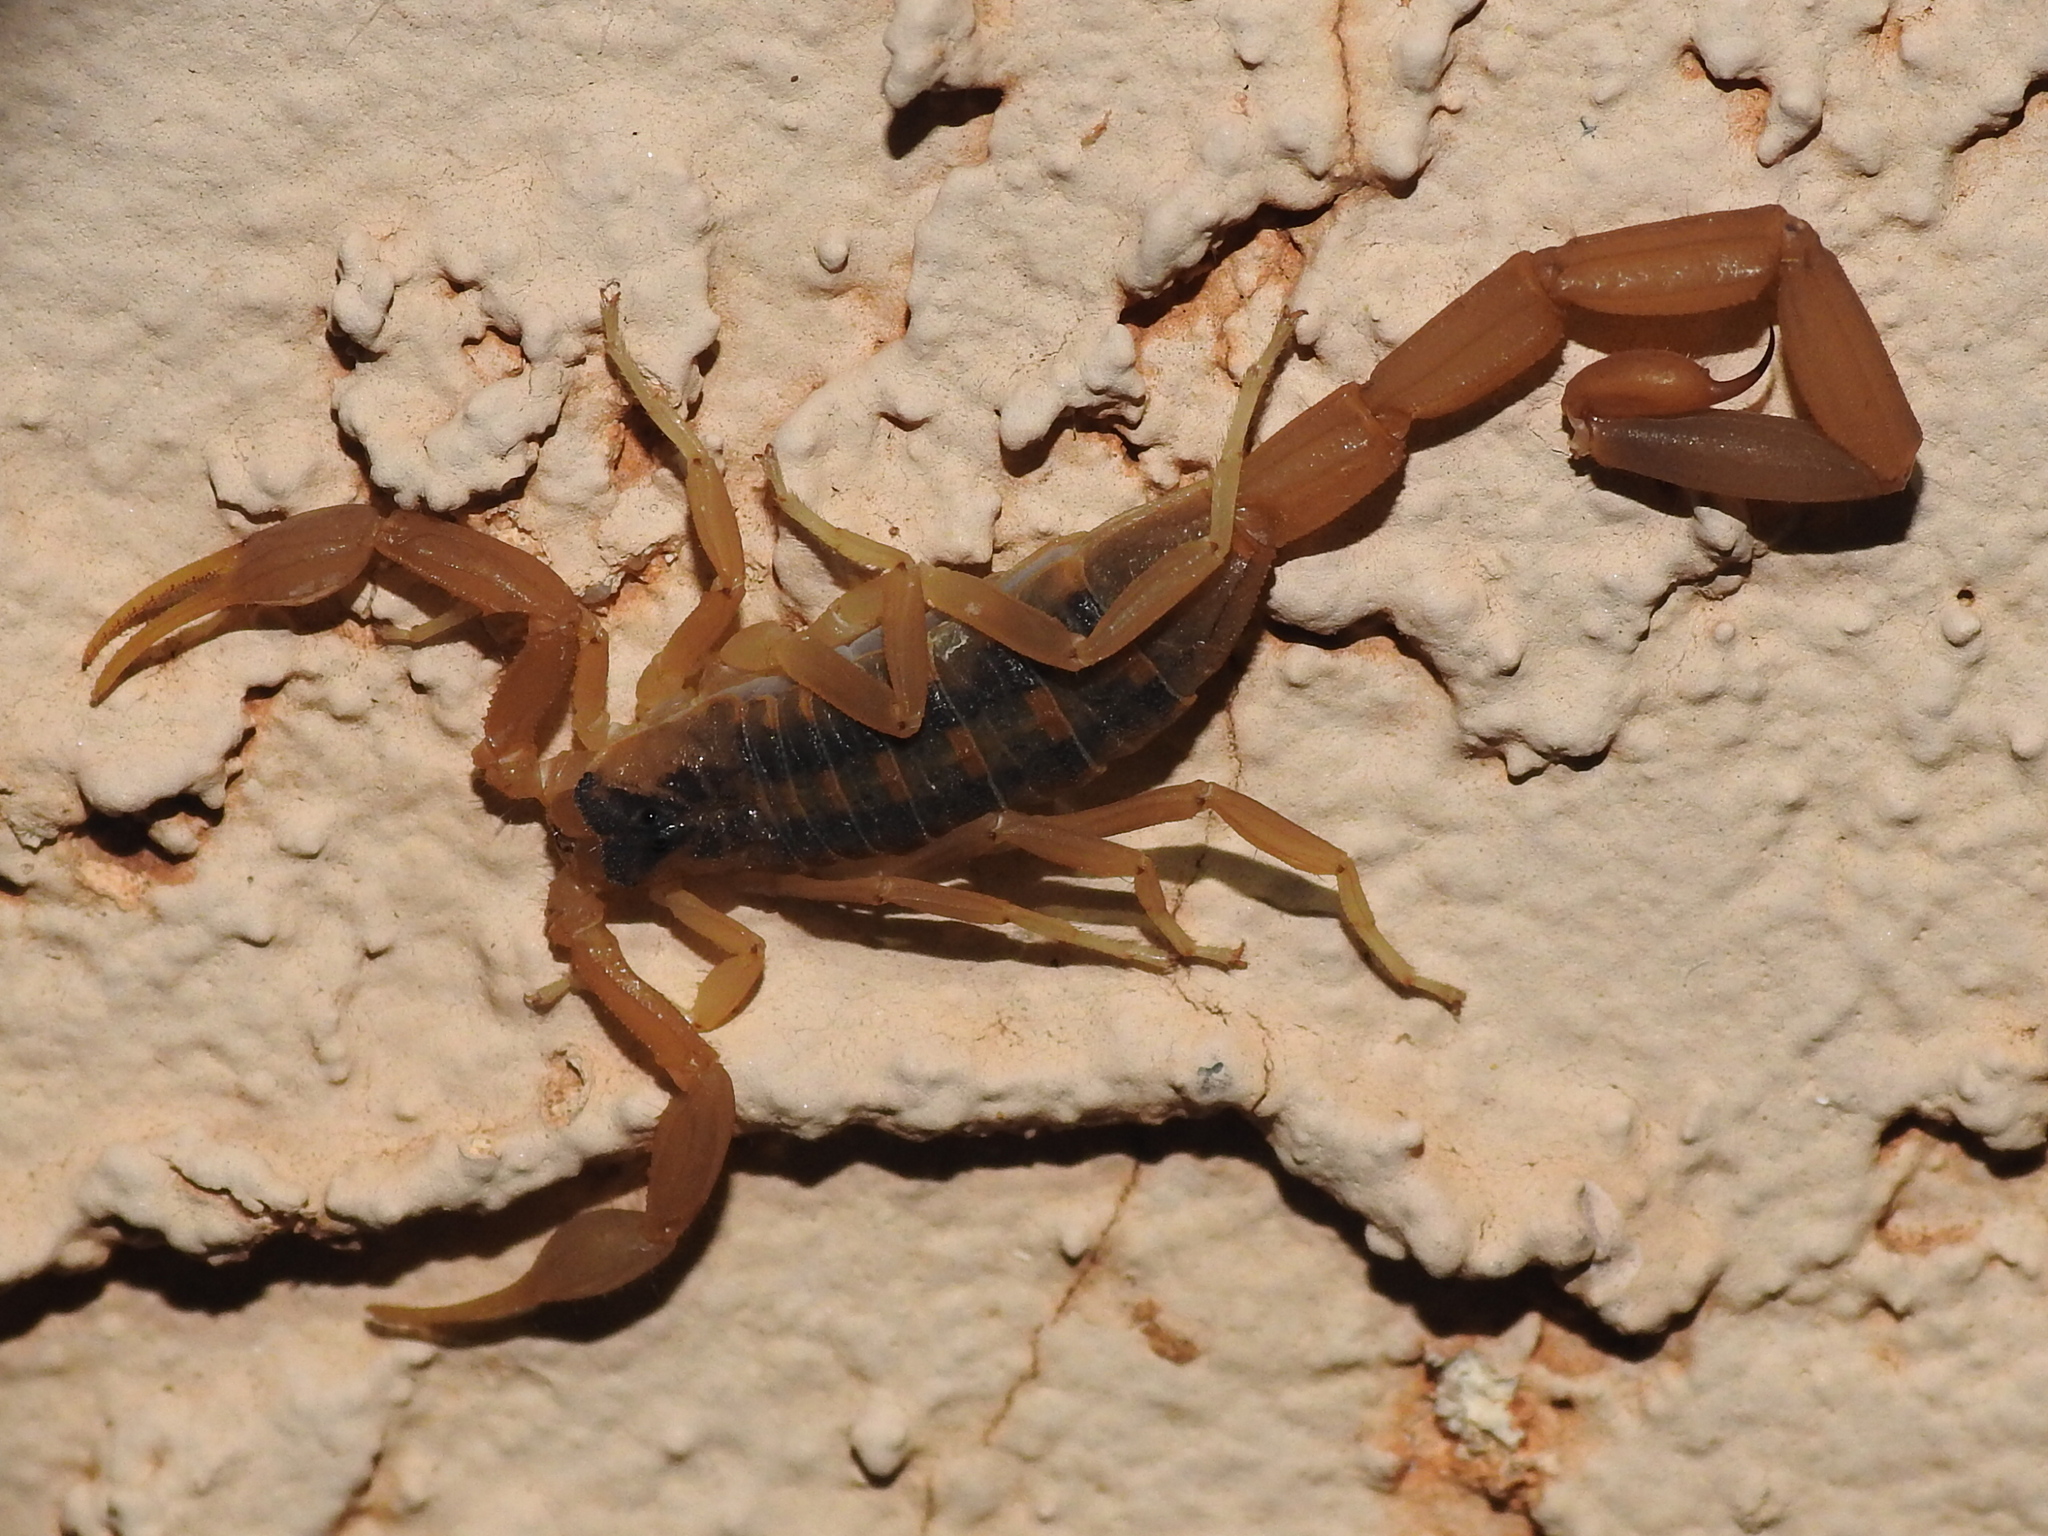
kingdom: Animalia
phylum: Arthropoda
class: Arachnida
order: Scorpiones
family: Buthidae
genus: Centruroides
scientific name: Centruroides vittatus
